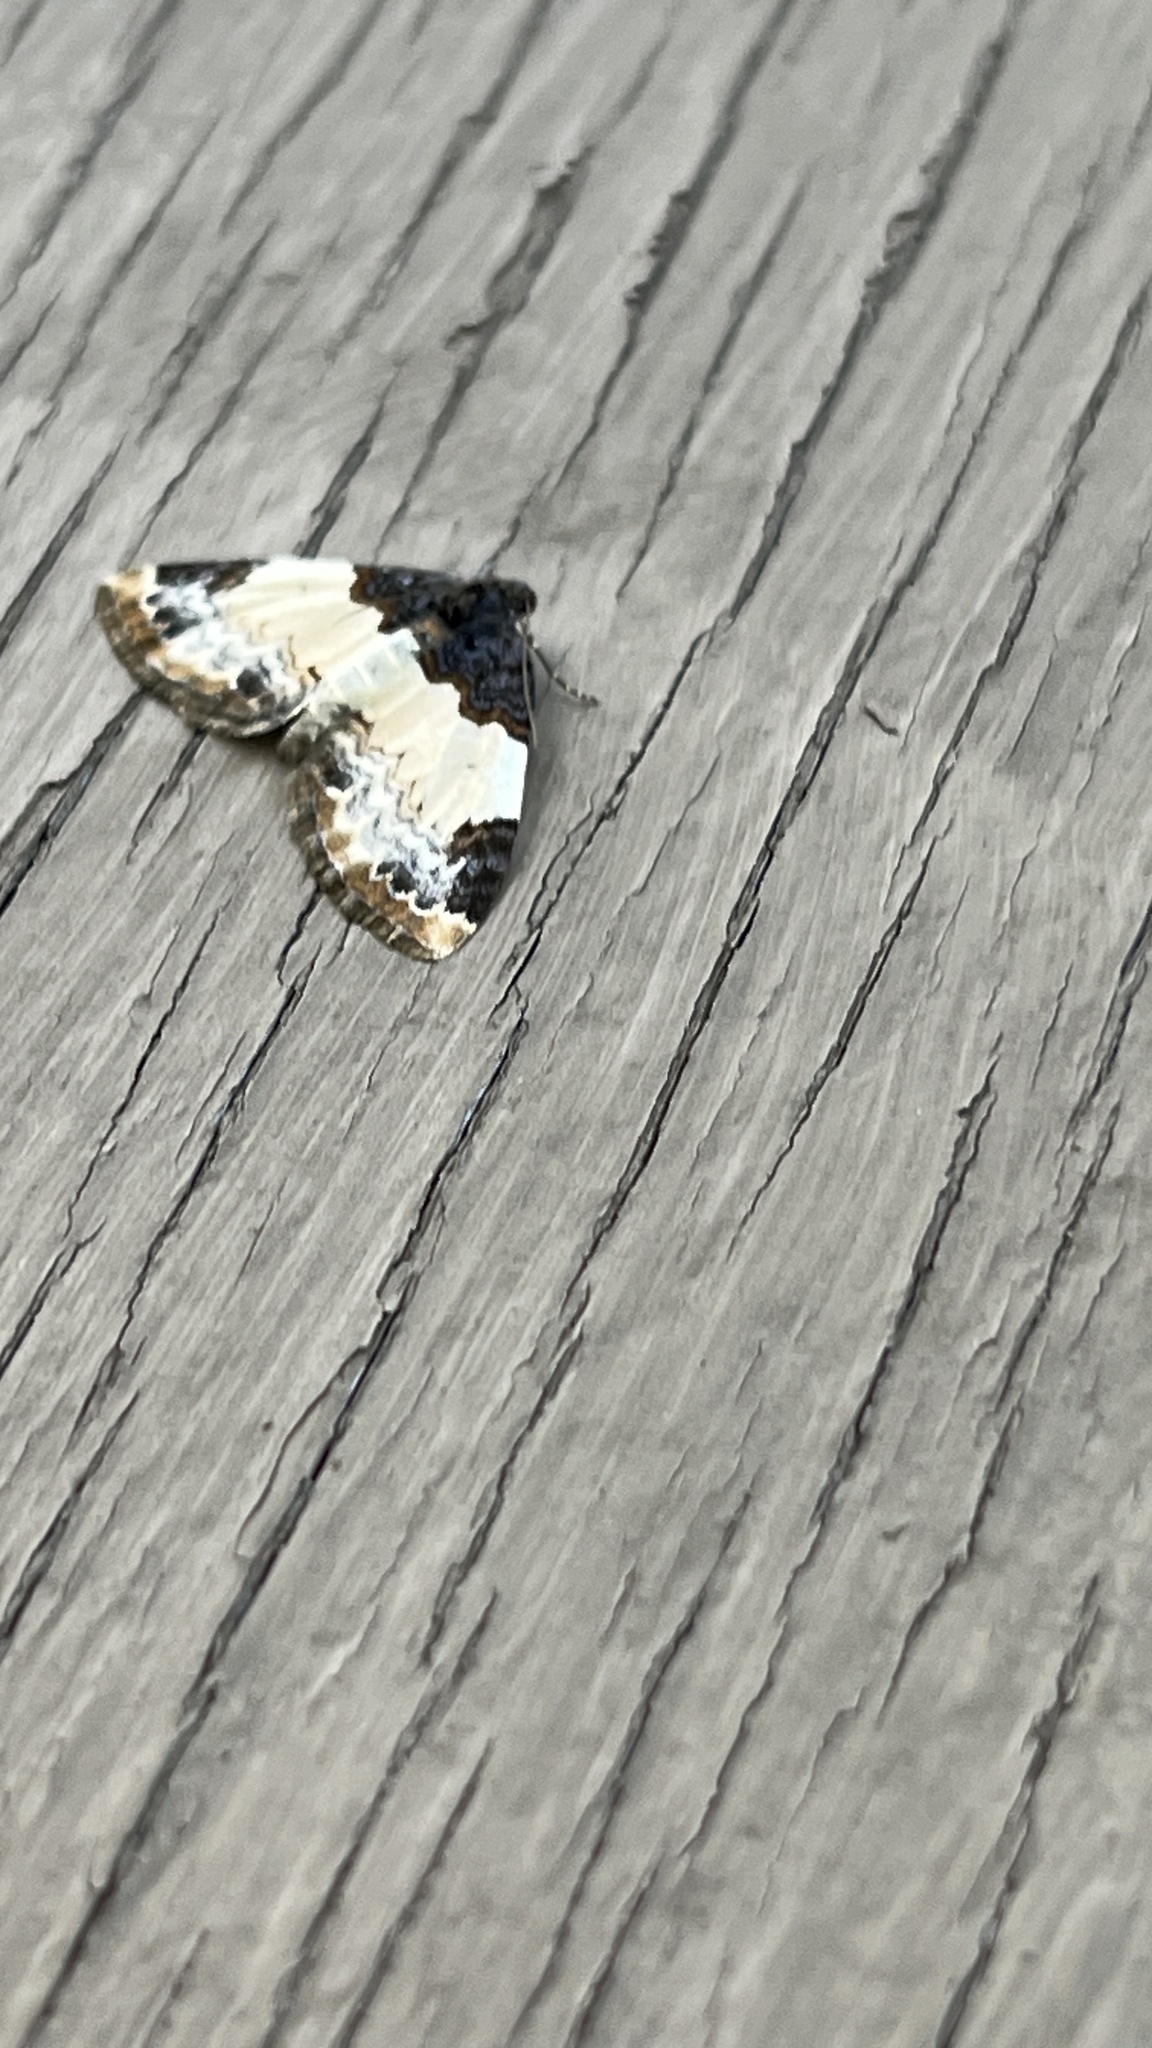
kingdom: Animalia
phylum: Arthropoda
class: Insecta
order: Lepidoptera
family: Geometridae
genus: Mesoleuca
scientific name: Mesoleuca ruficillata
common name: White-ribboned carpet moth
